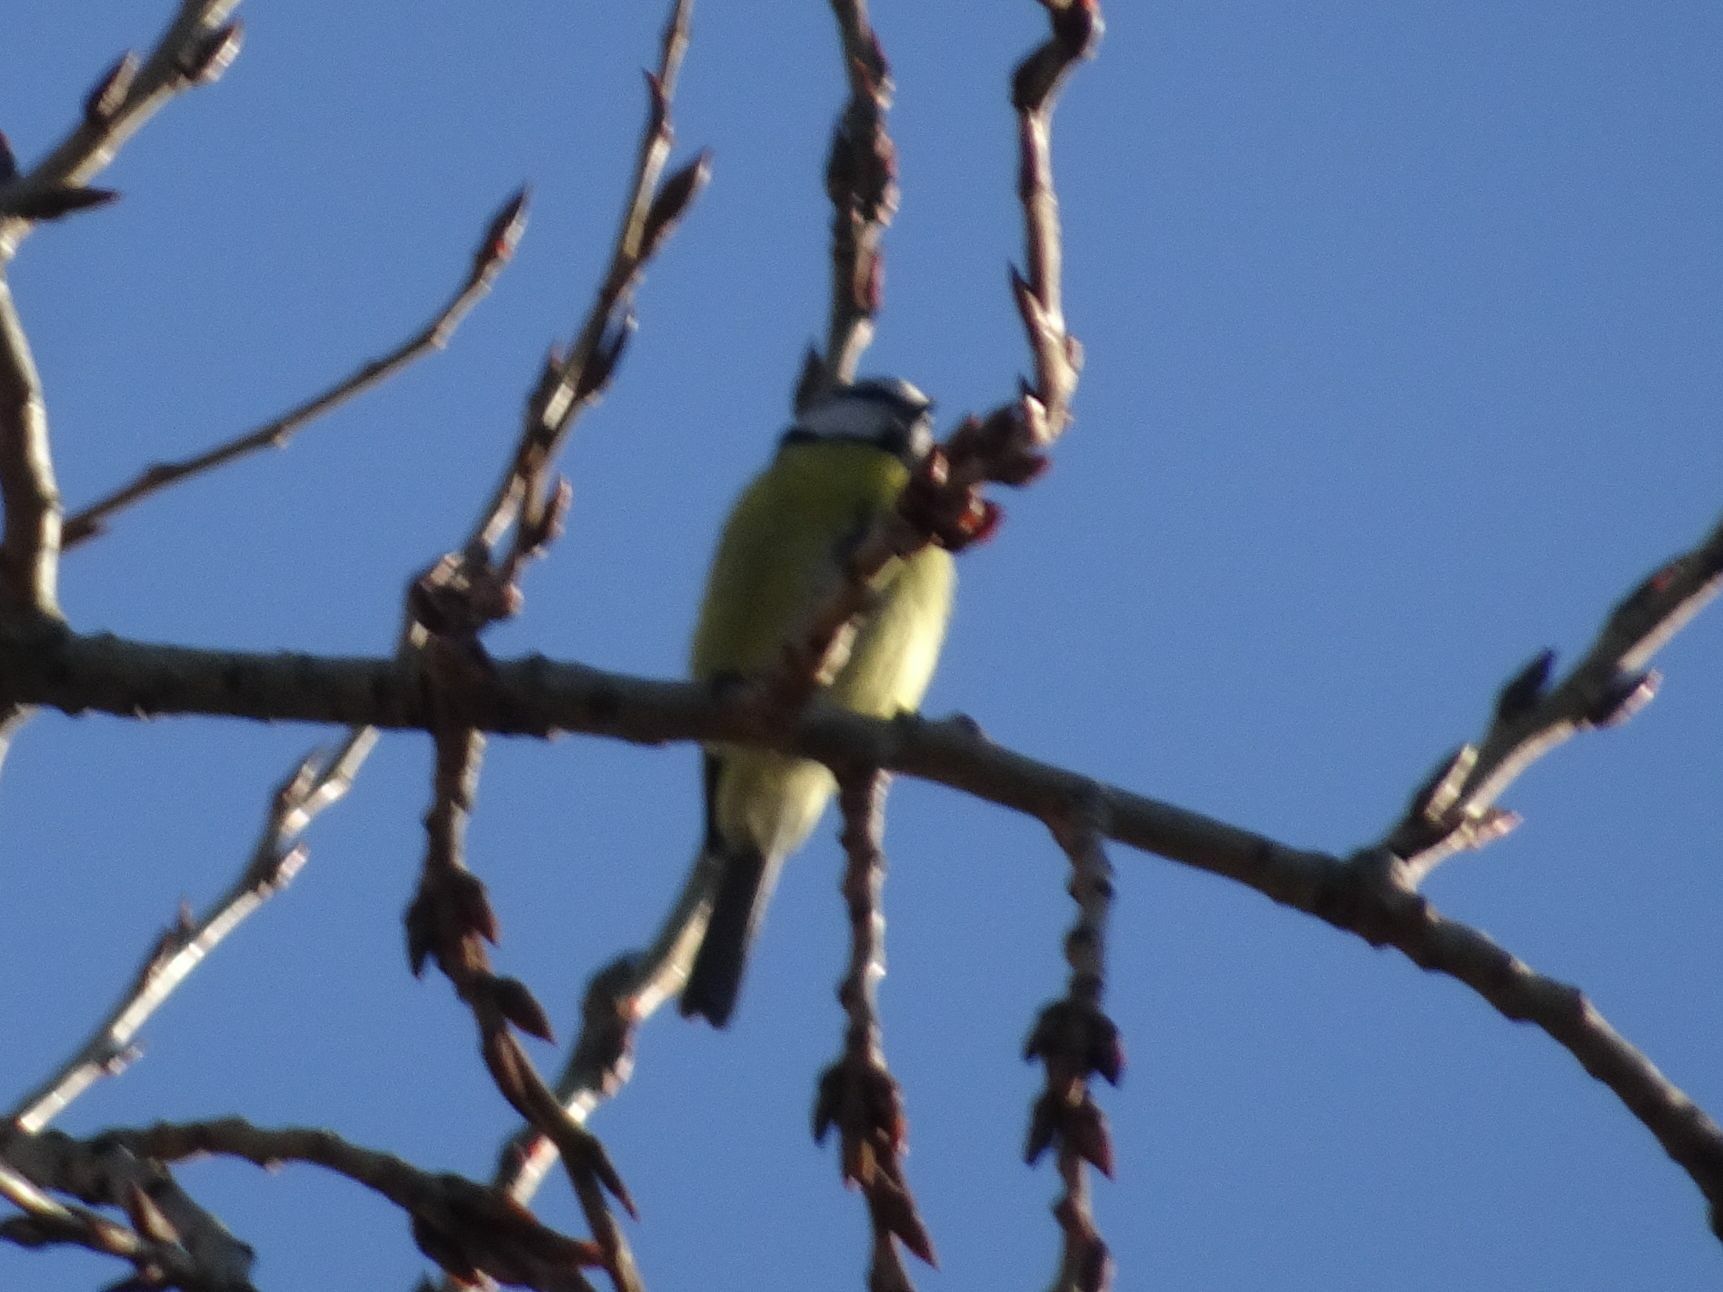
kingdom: Animalia
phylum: Chordata
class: Aves
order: Passeriformes
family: Paridae
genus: Cyanistes
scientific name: Cyanistes caeruleus
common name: Eurasian blue tit
